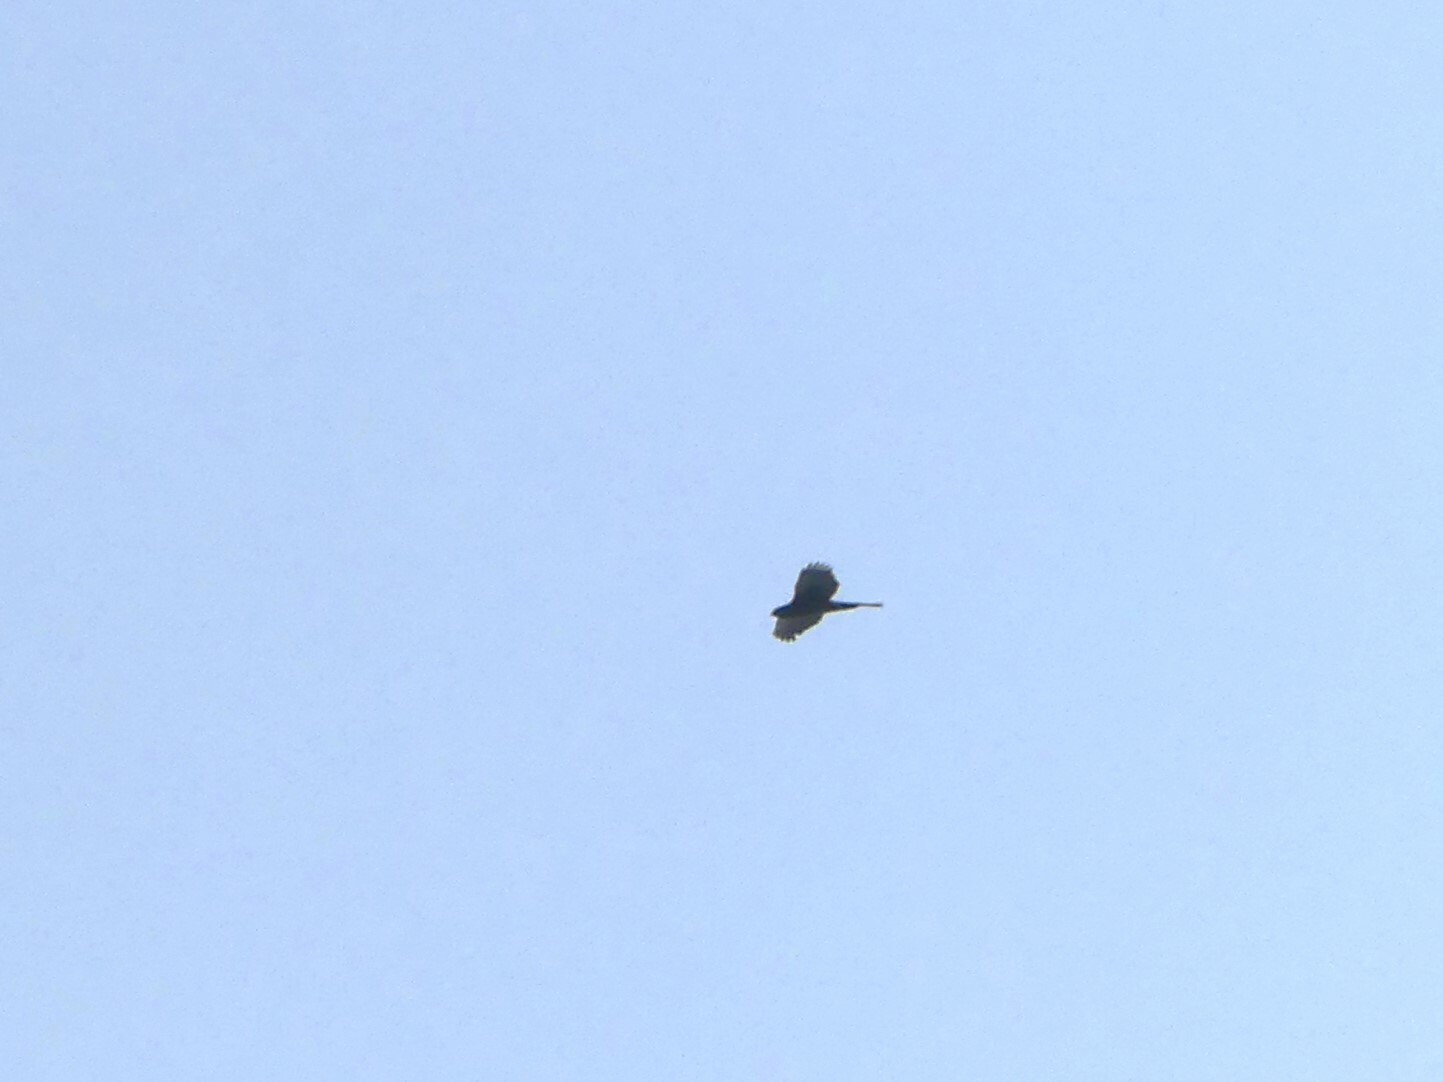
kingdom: Animalia
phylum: Chordata
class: Aves
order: Accipitriformes
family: Accipitridae
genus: Accipiter
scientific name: Accipiter cooperii
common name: Cooper's hawk
